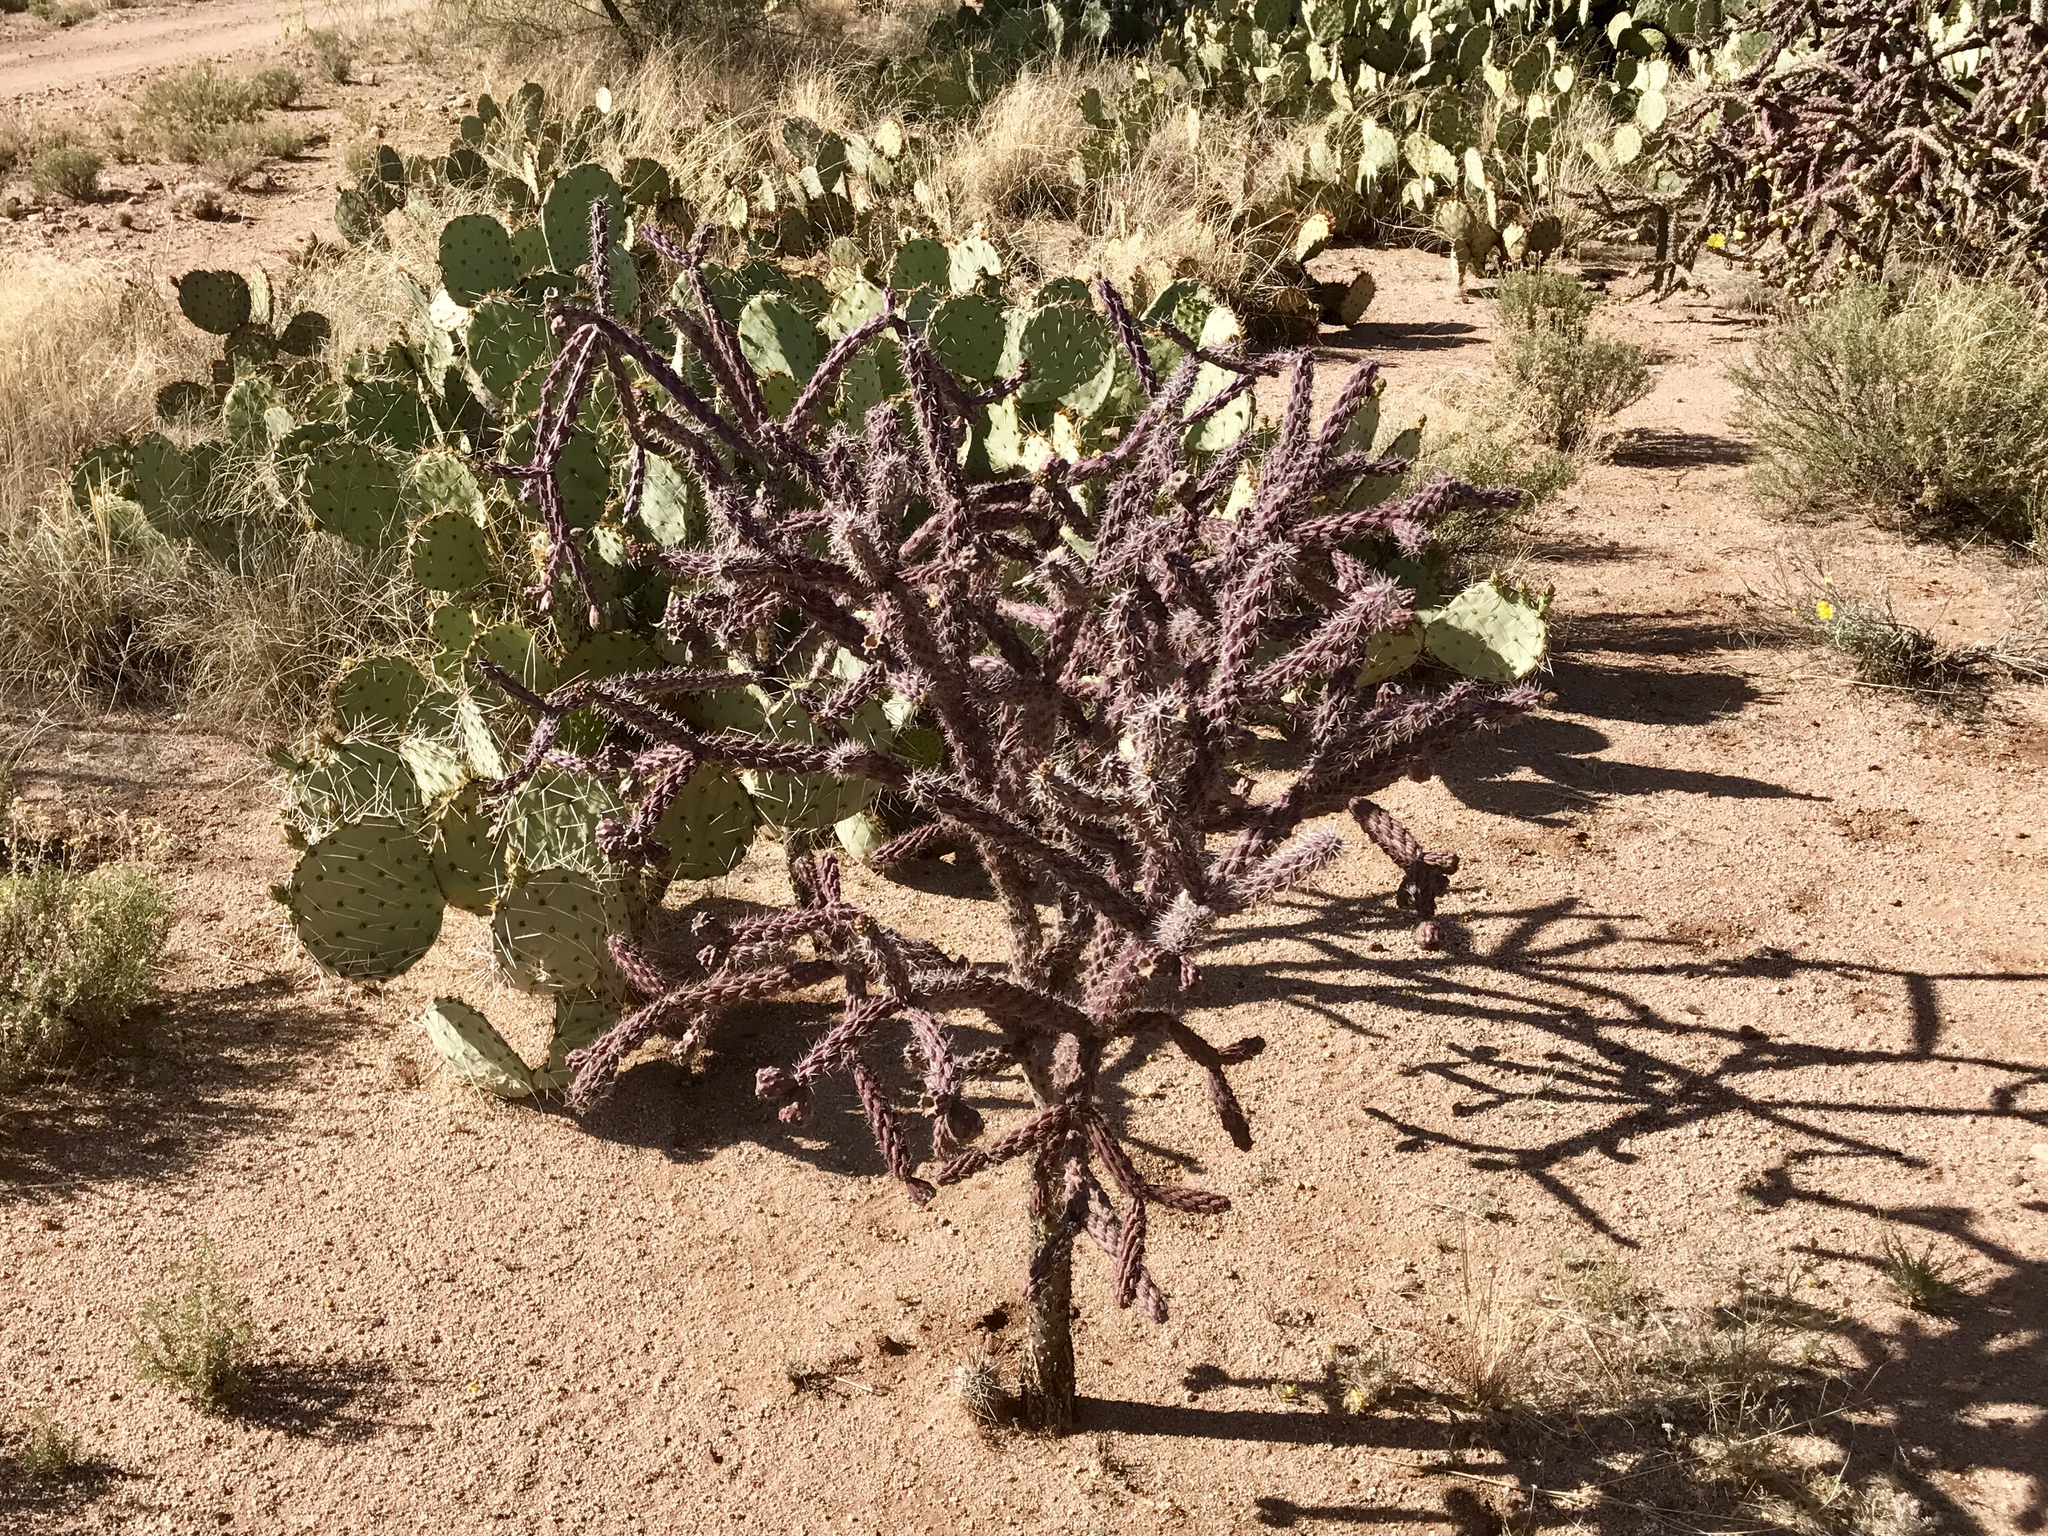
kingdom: Plantae
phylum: Tracheophyta
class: Magnoliopsida
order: Caryophyllales
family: Cactaceae
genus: Cylindropuntia
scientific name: Cylindropuntia thurberi
